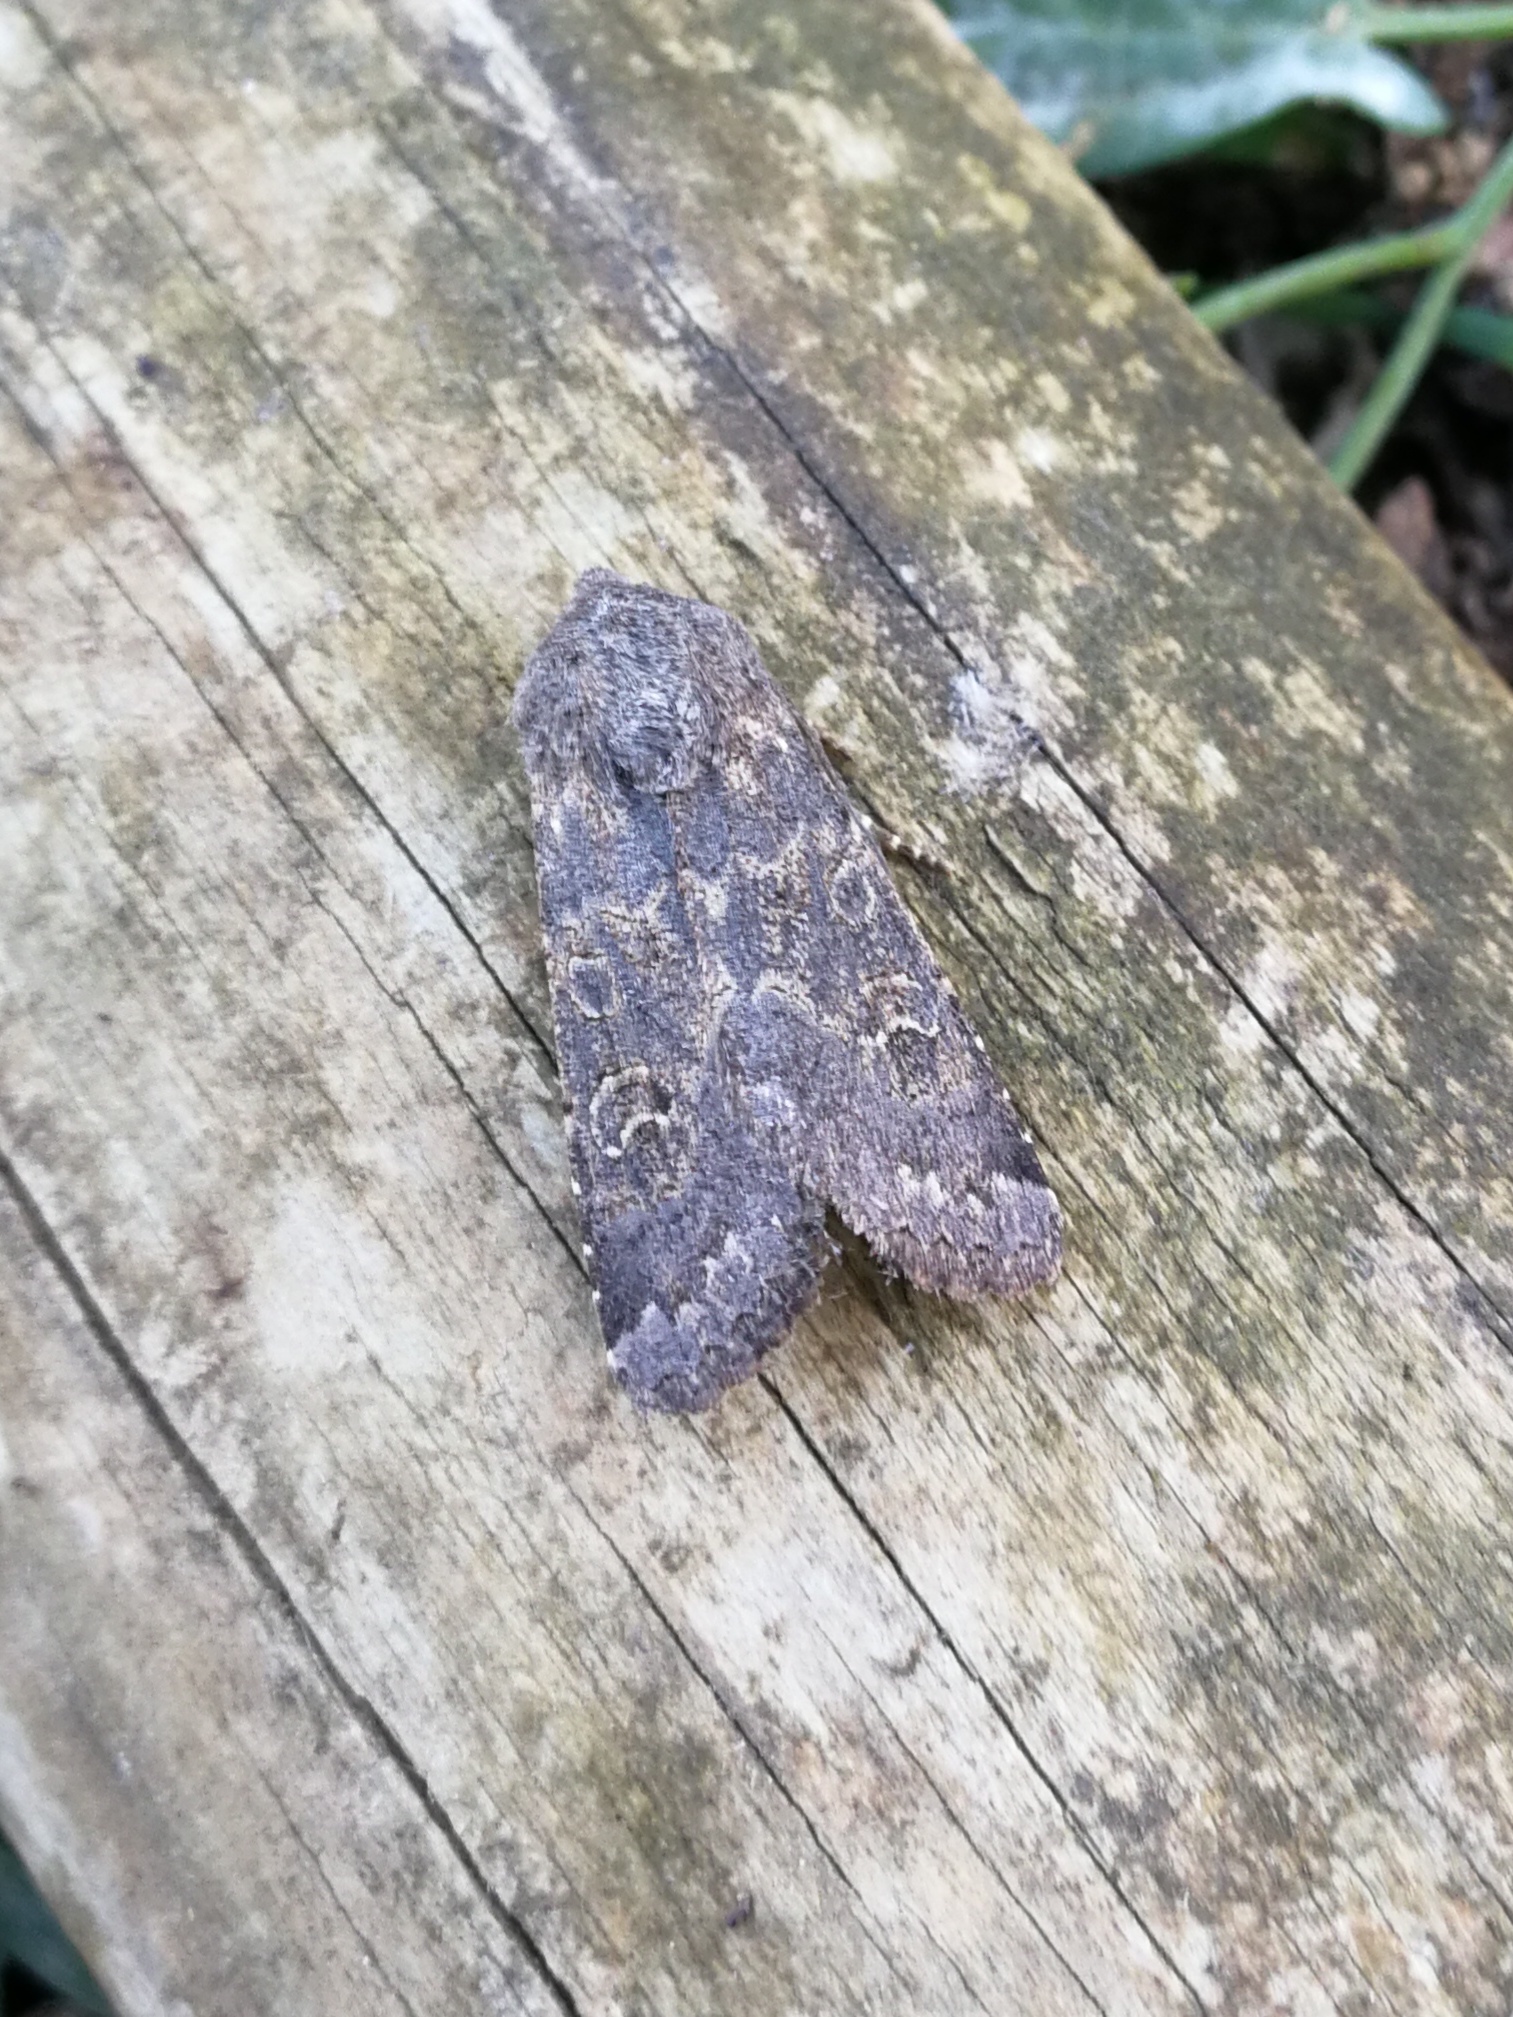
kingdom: Animalia
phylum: Arthropoda
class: Insecta
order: Lepidoptera
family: Noctuidae
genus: Aporophyla
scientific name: Aporophyla lueneburgensis
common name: Northern deep-brown dart
